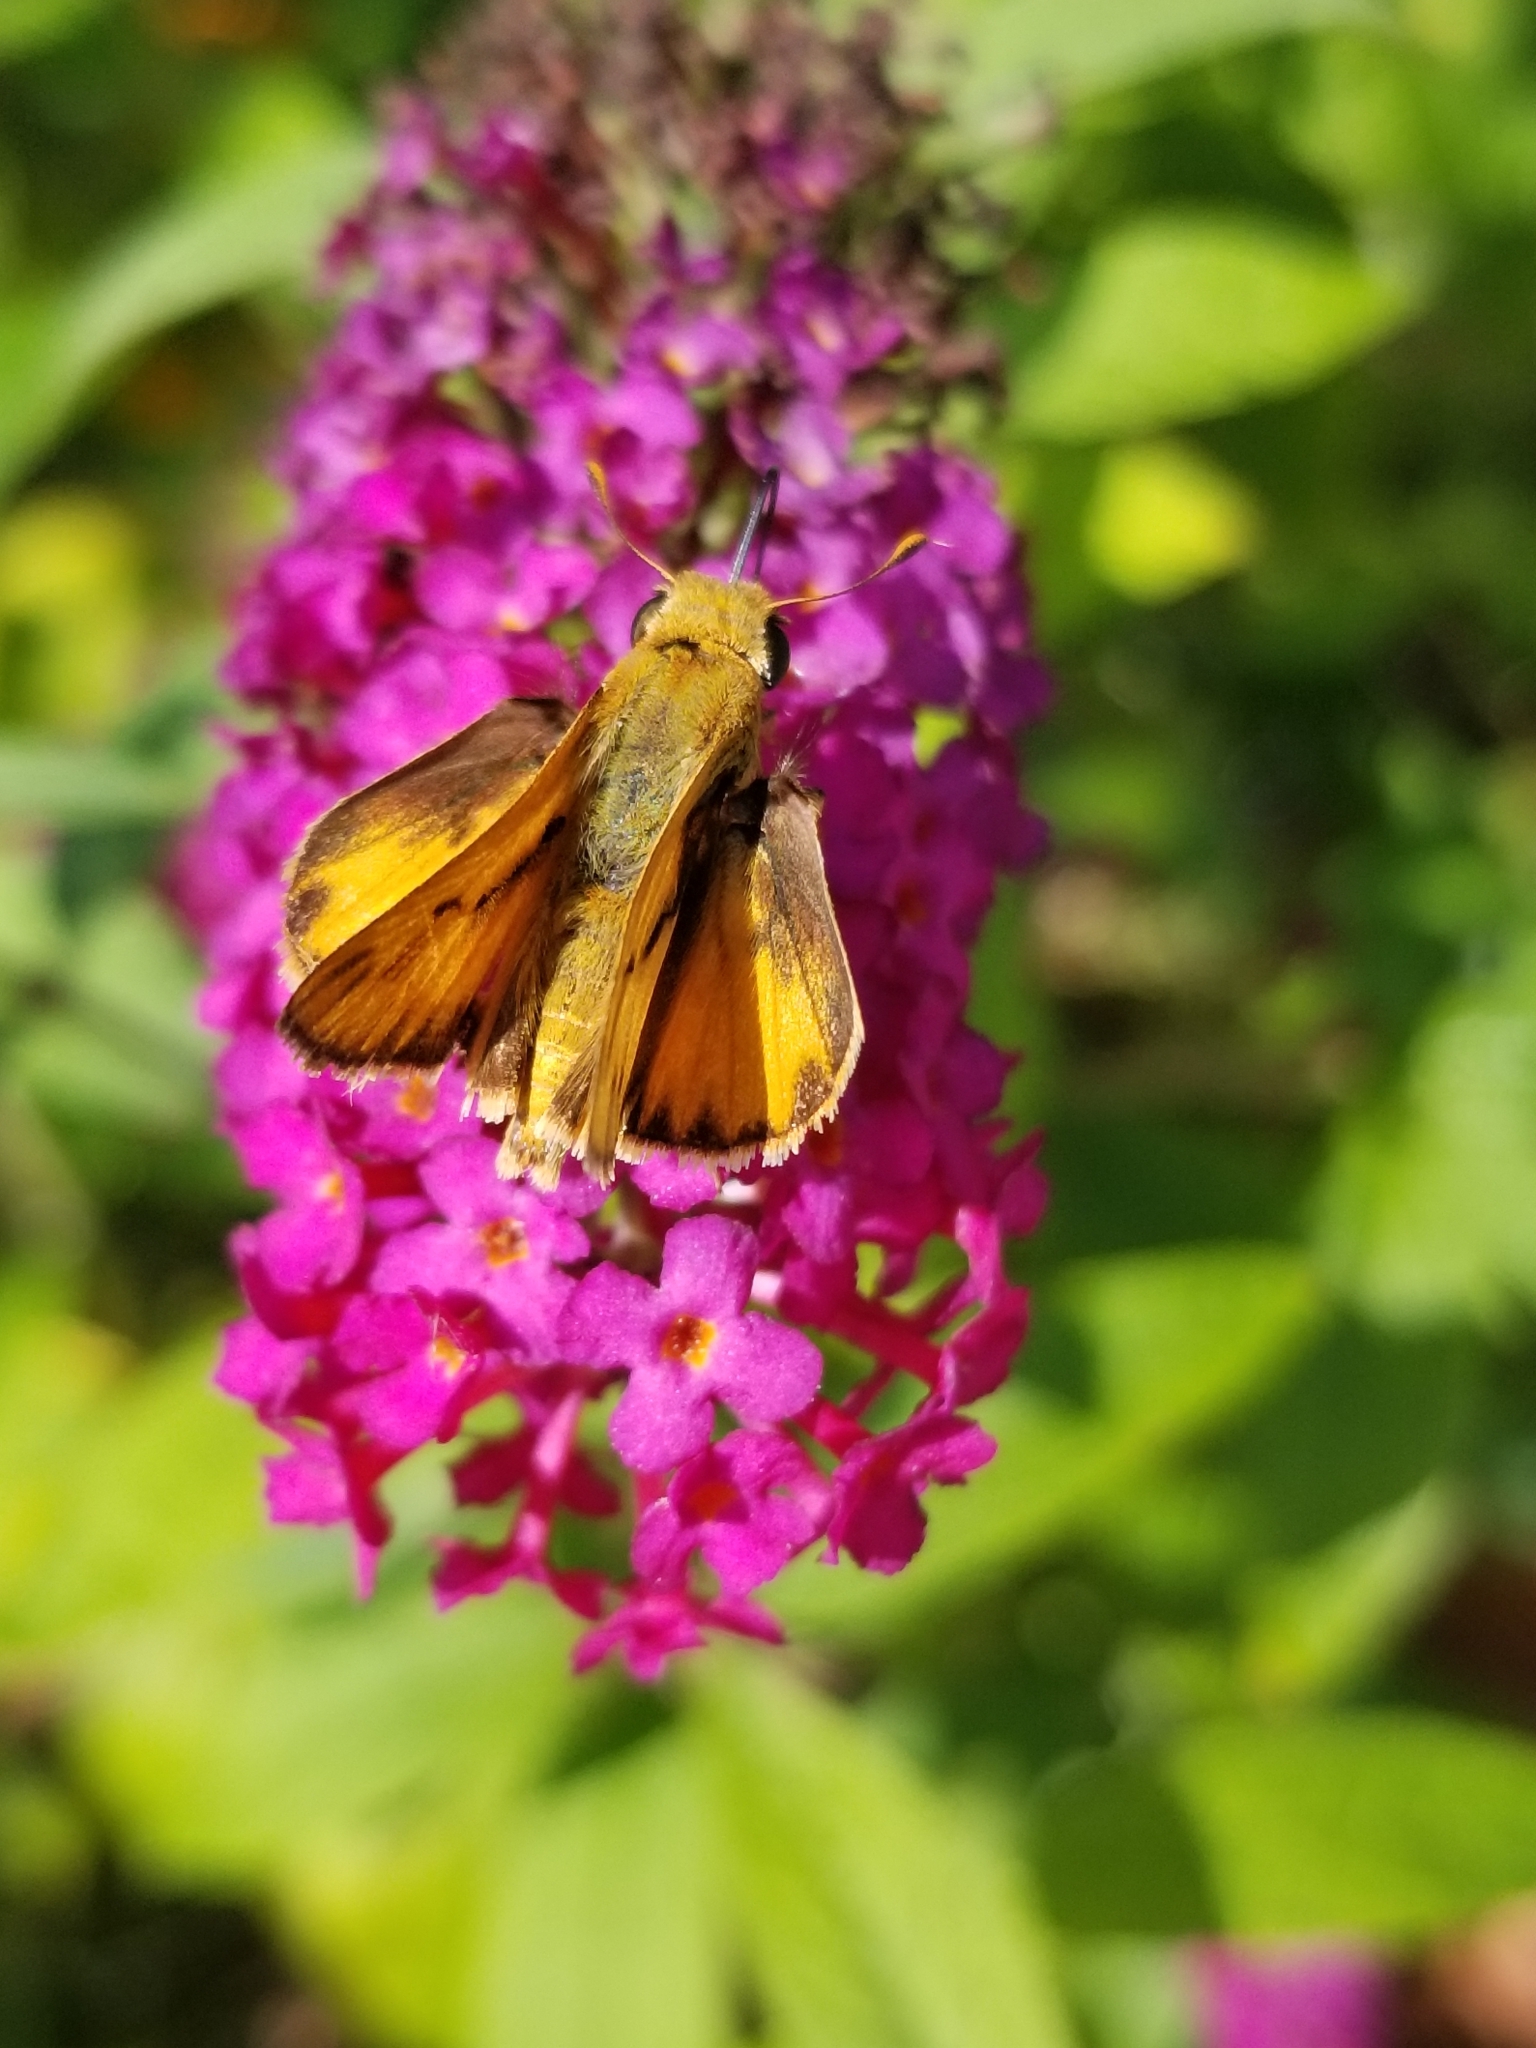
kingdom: Animalia
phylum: Arthropoda
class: Insecta
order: Lepidoptera
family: Hesperiidae
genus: Hylephila
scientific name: Hylephila phyleus
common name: Fiery skipper
